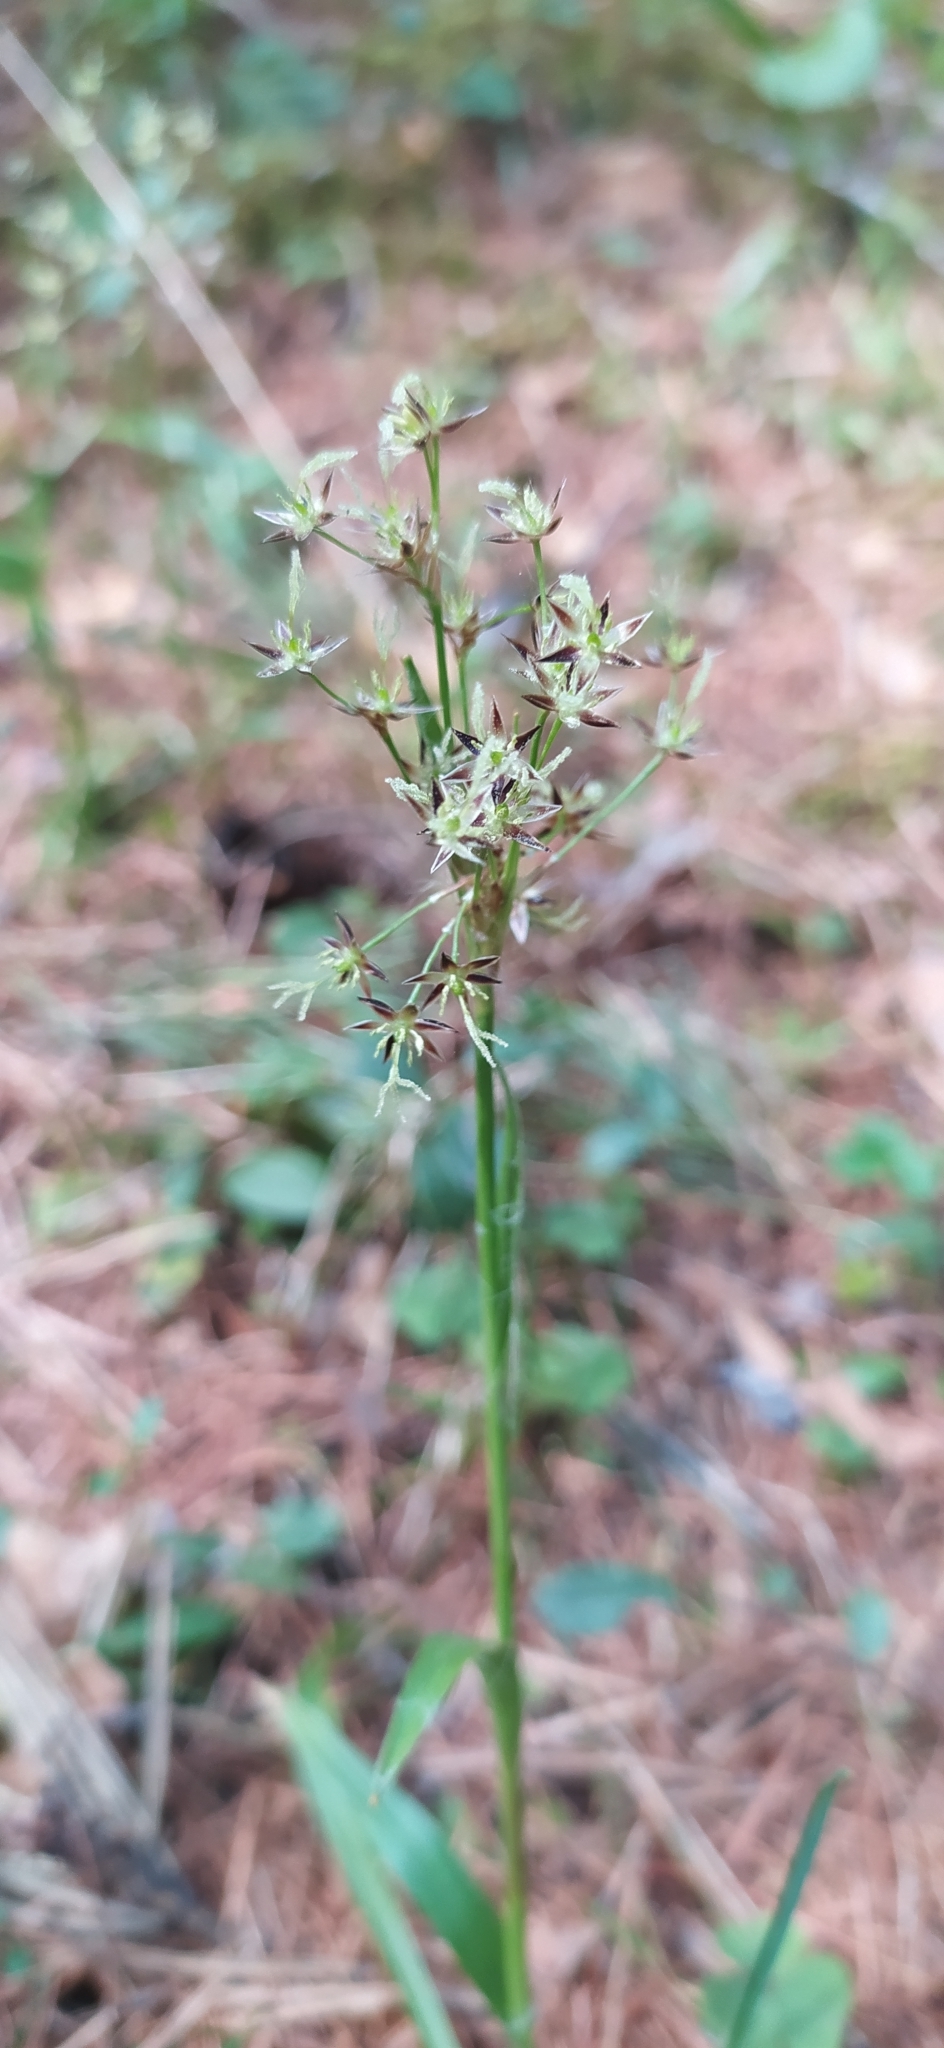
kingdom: Plantae
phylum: Tracheophyta
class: Liliopsida
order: Poales
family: Juncaceae
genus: Luzula
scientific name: Luzula pilosa
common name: Hairy wood-rush
